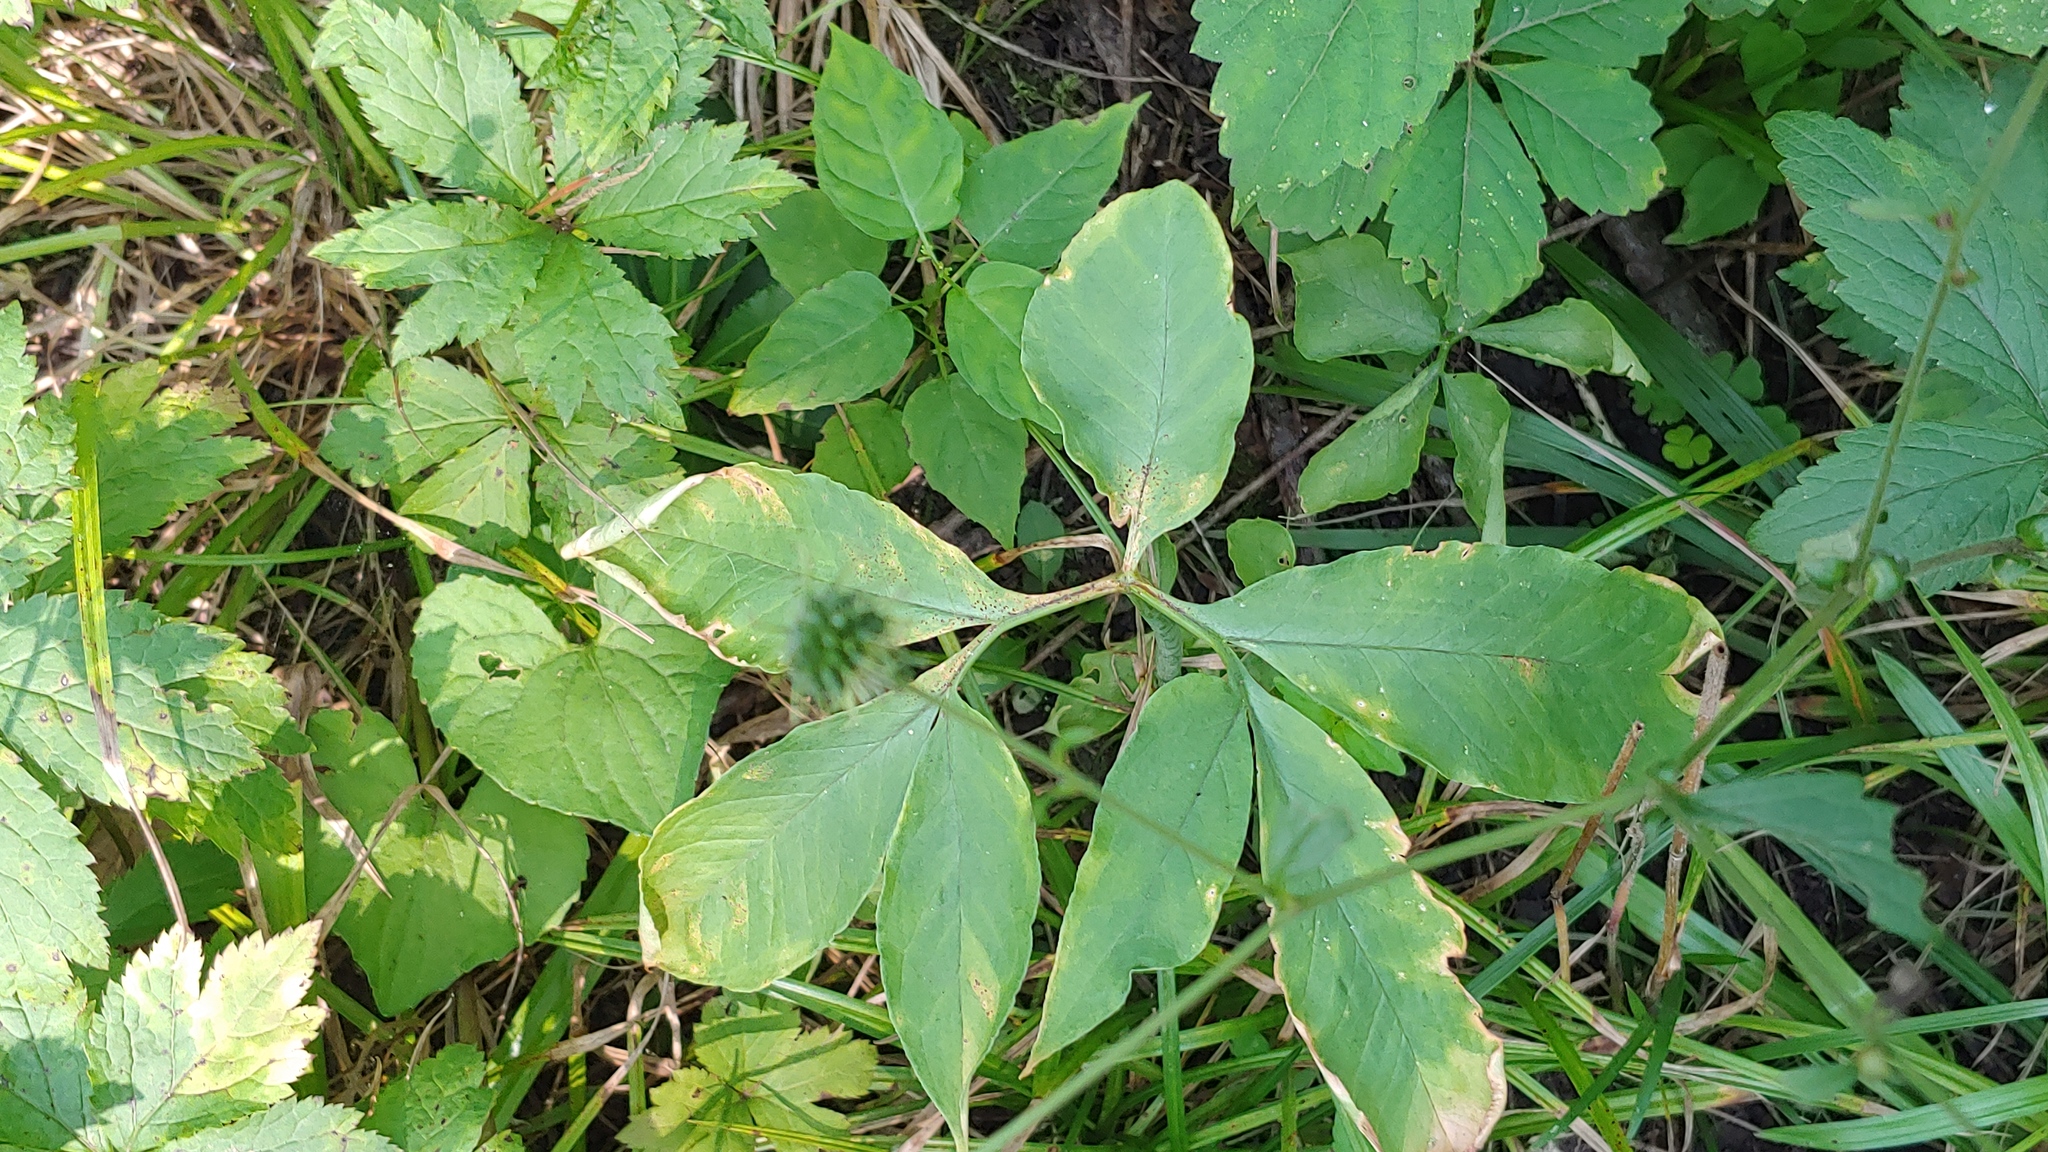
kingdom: Plantae
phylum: Tracheophyta
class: Liliopsida
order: Alismatales
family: Araceae
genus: Arisaema
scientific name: Arisaema dracontium
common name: Dragon-arum
